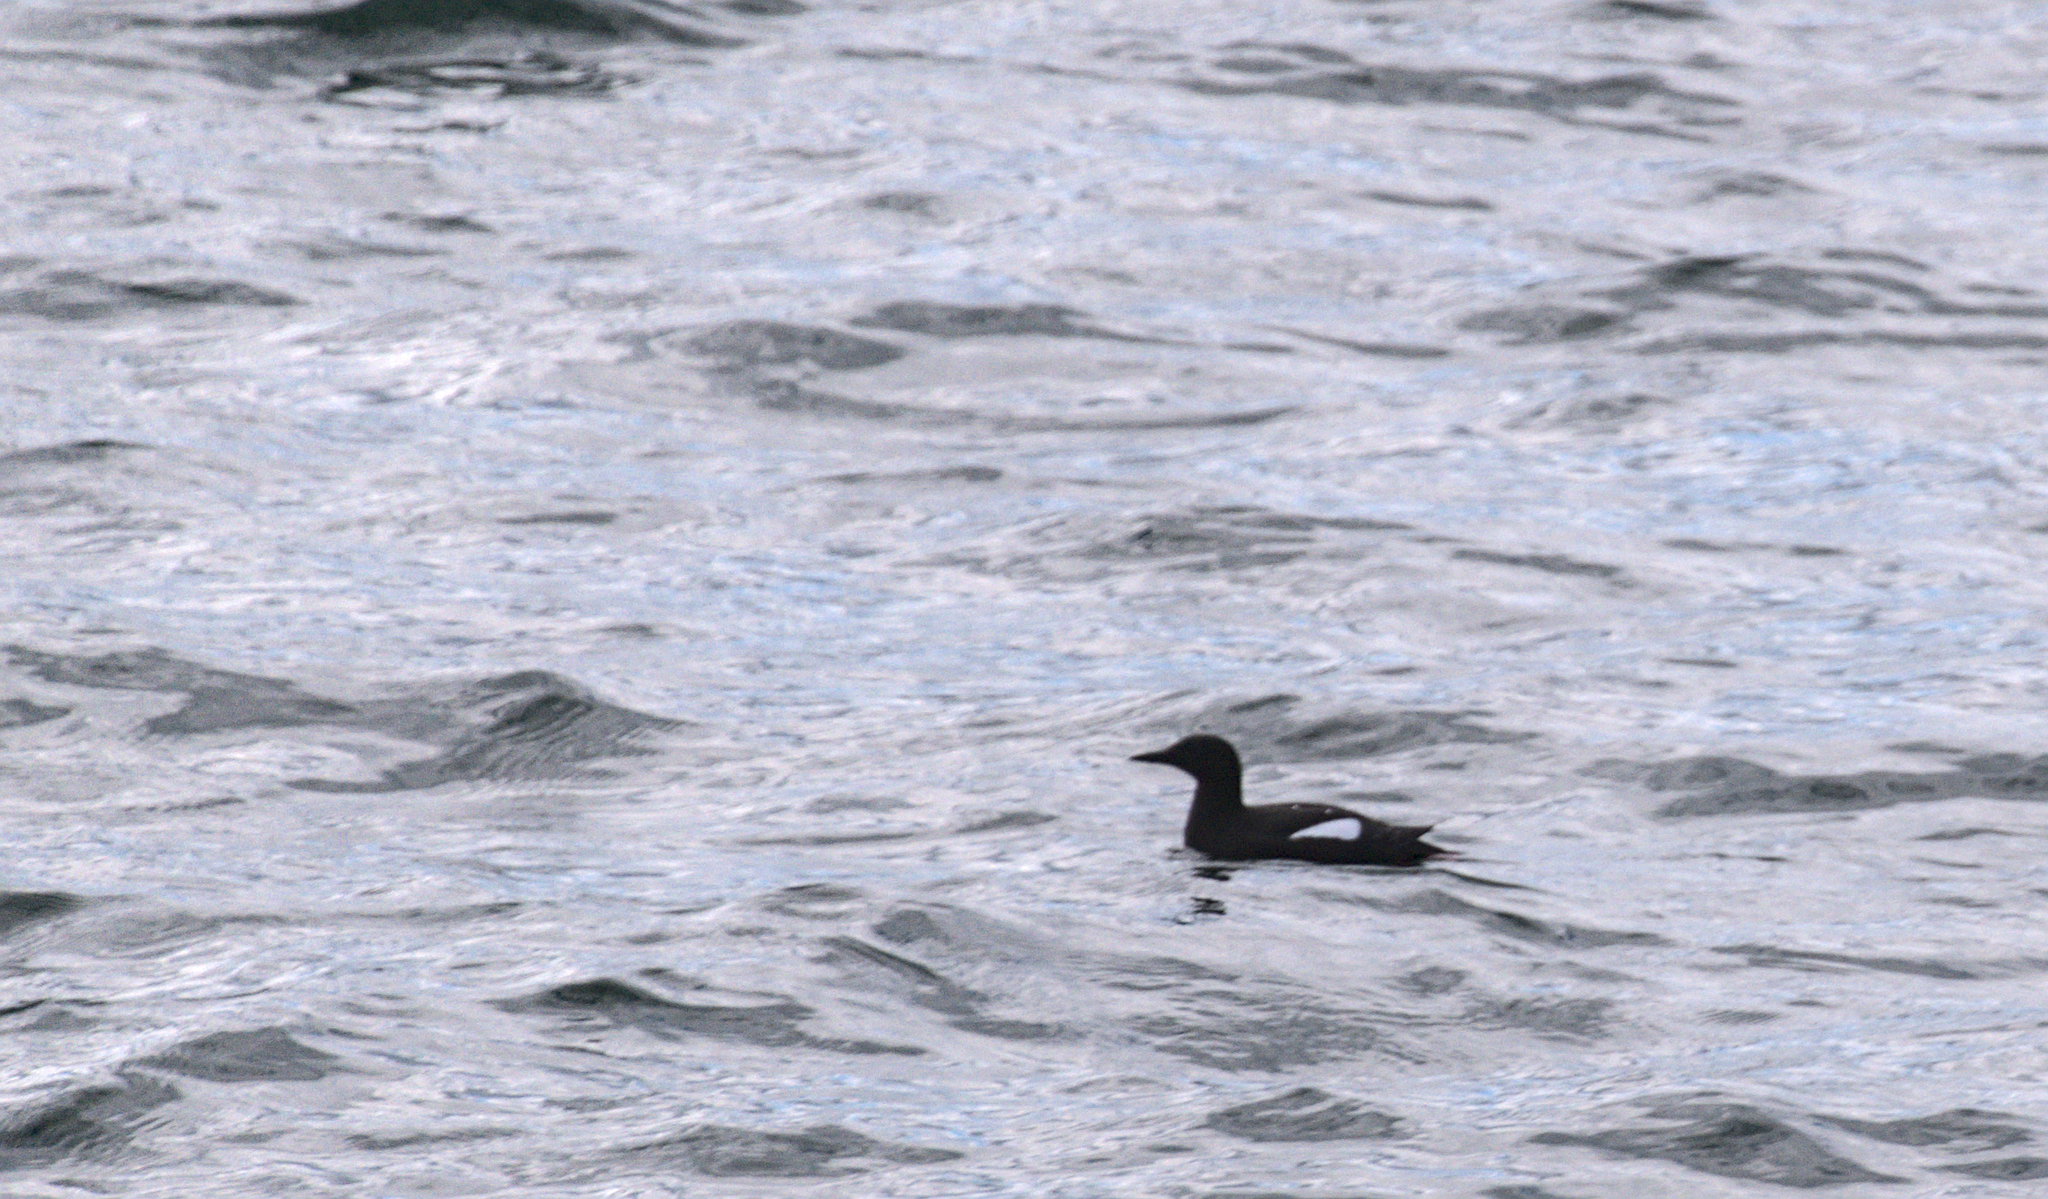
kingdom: Animalia
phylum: Chordata
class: Aves
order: Charadriiformes
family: Alcidae
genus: Cepphus
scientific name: Cepphus grylle
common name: Black guillemot
